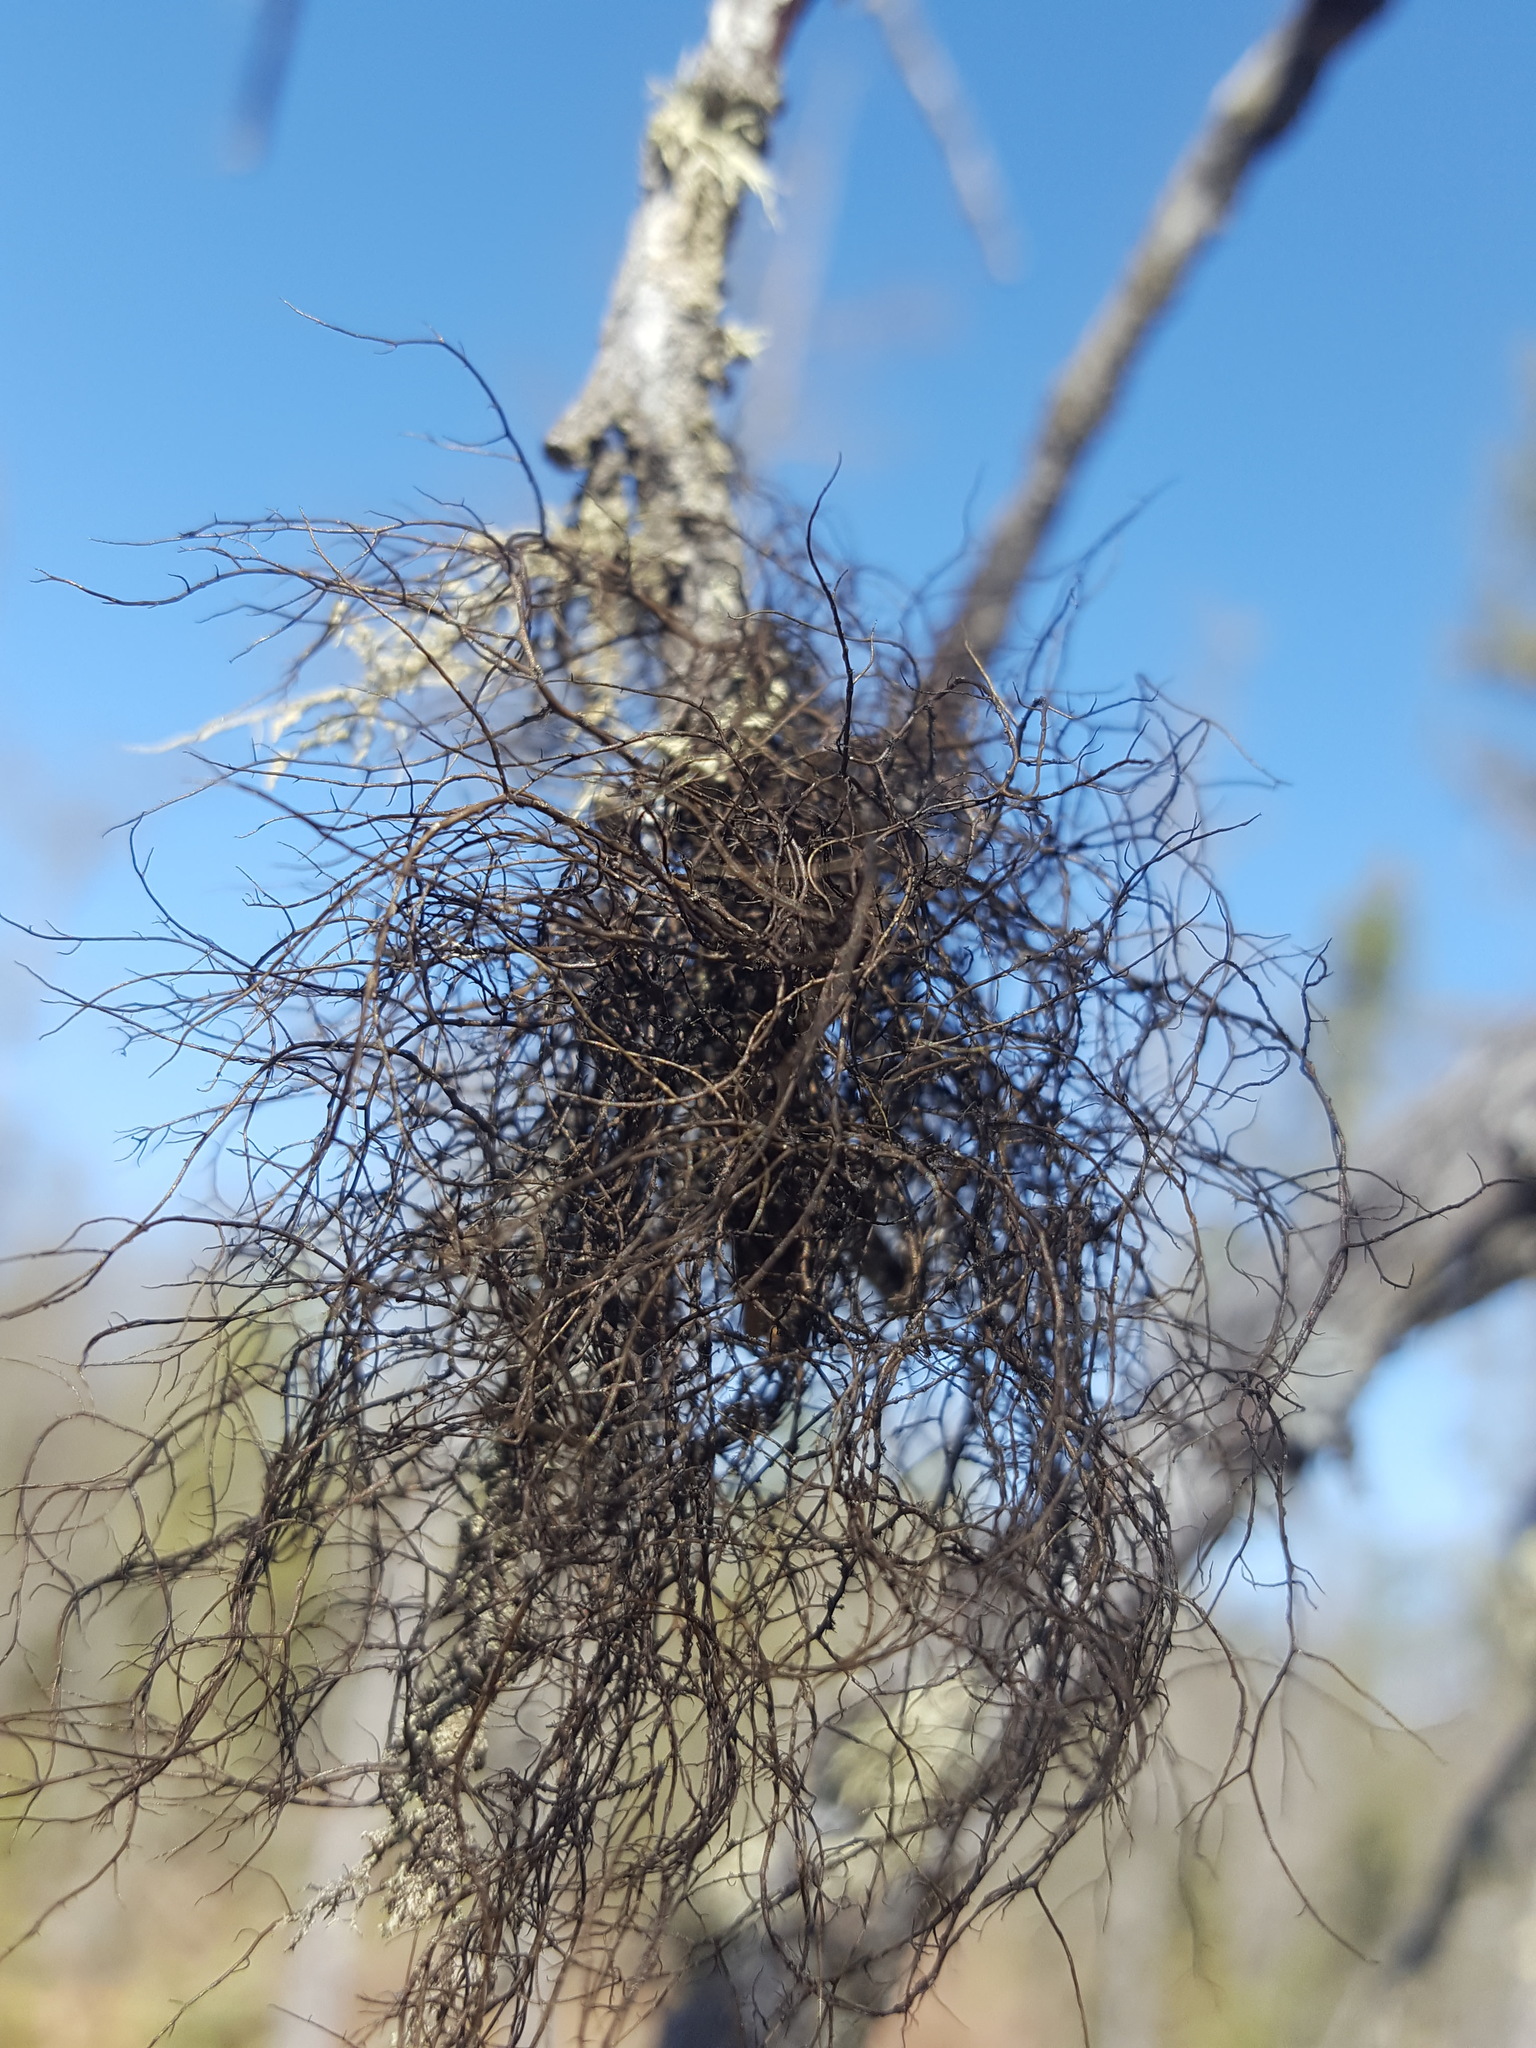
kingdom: Fungi
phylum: Ascomycota
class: Lecanoromycetes
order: Lecanorales
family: Parmeliaceae
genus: Bryoria
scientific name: Bryoria furcellata
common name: Forked hair-lichen
